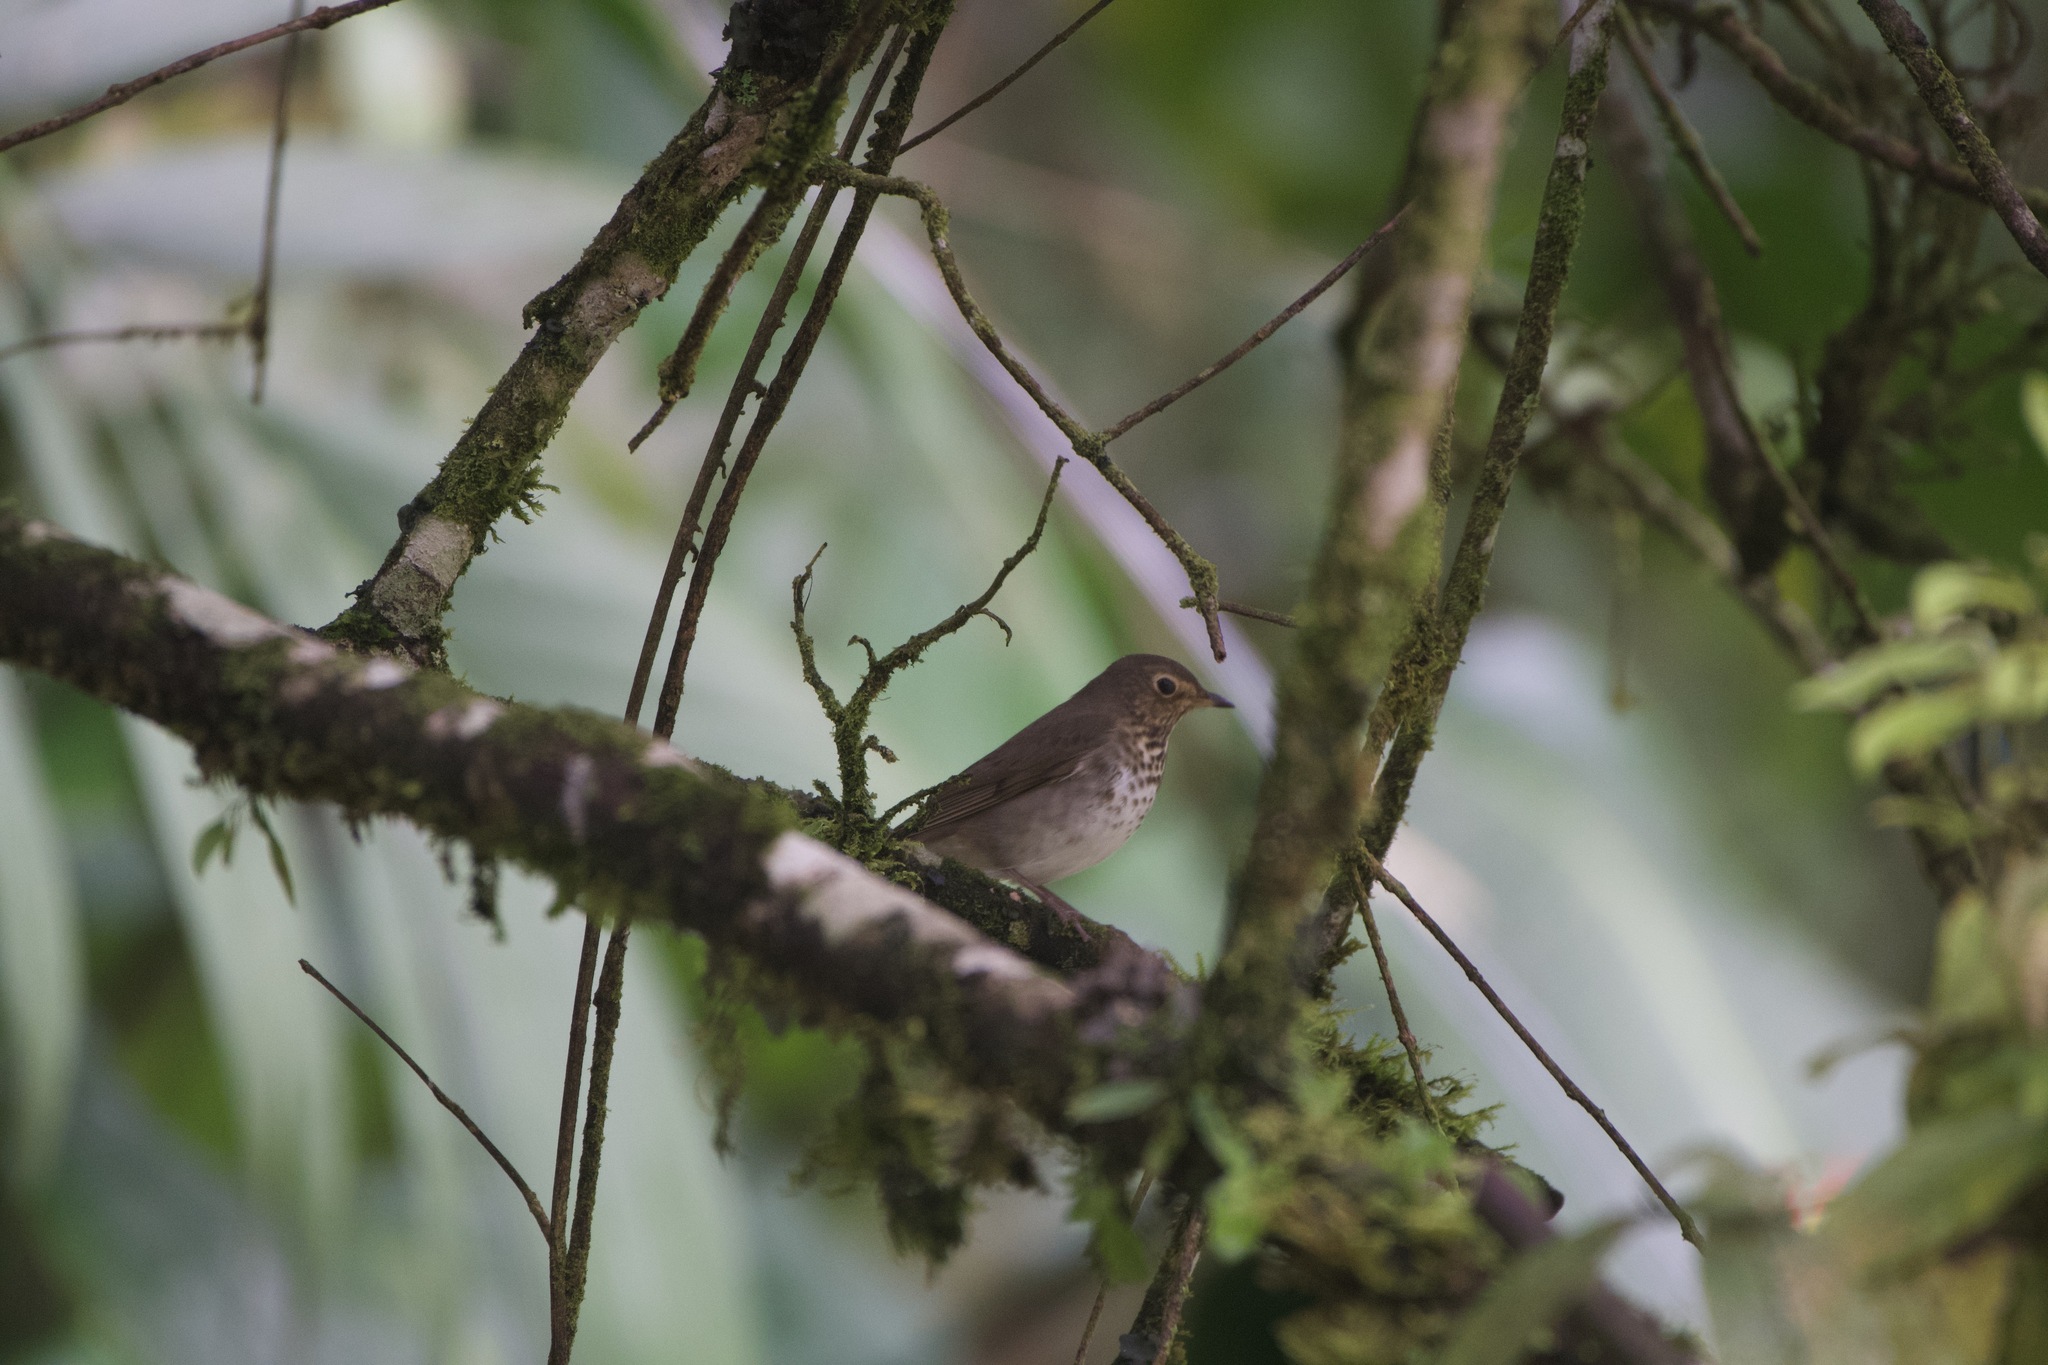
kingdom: Animalia
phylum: Chordata
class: Aves
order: Passeriformes
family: Turdidae
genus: Catharus
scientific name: Catharus ustulatus
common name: Swainson's thrush
